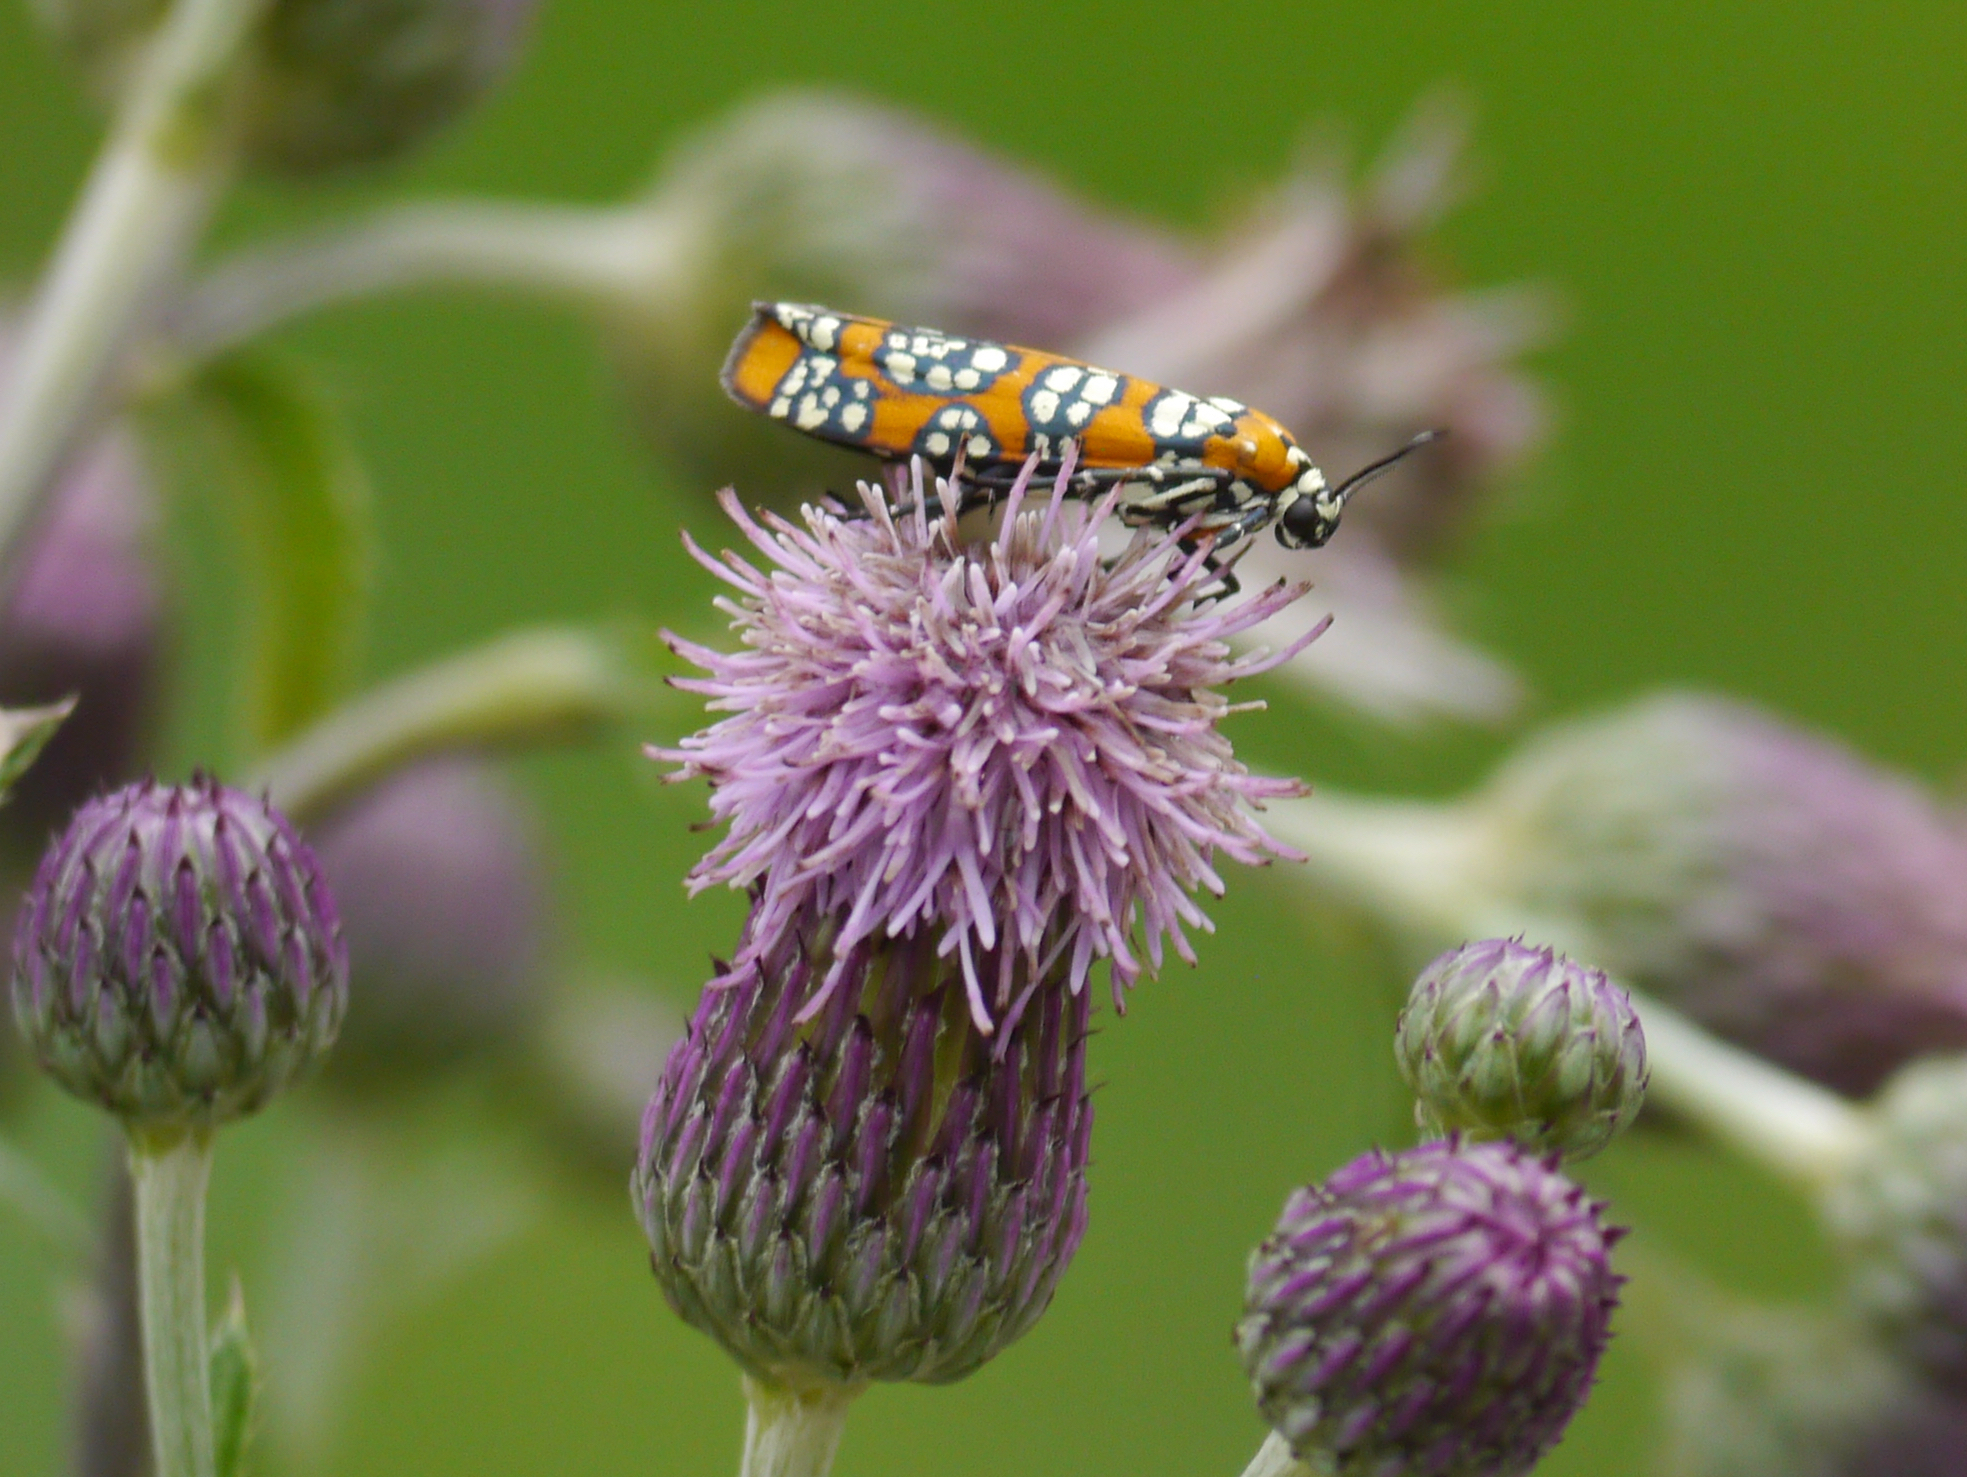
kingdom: Animalia
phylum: Arthropoda
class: Insecta
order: Lepidoptera
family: Attevidae
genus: Atteva
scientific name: Atteva punctella
